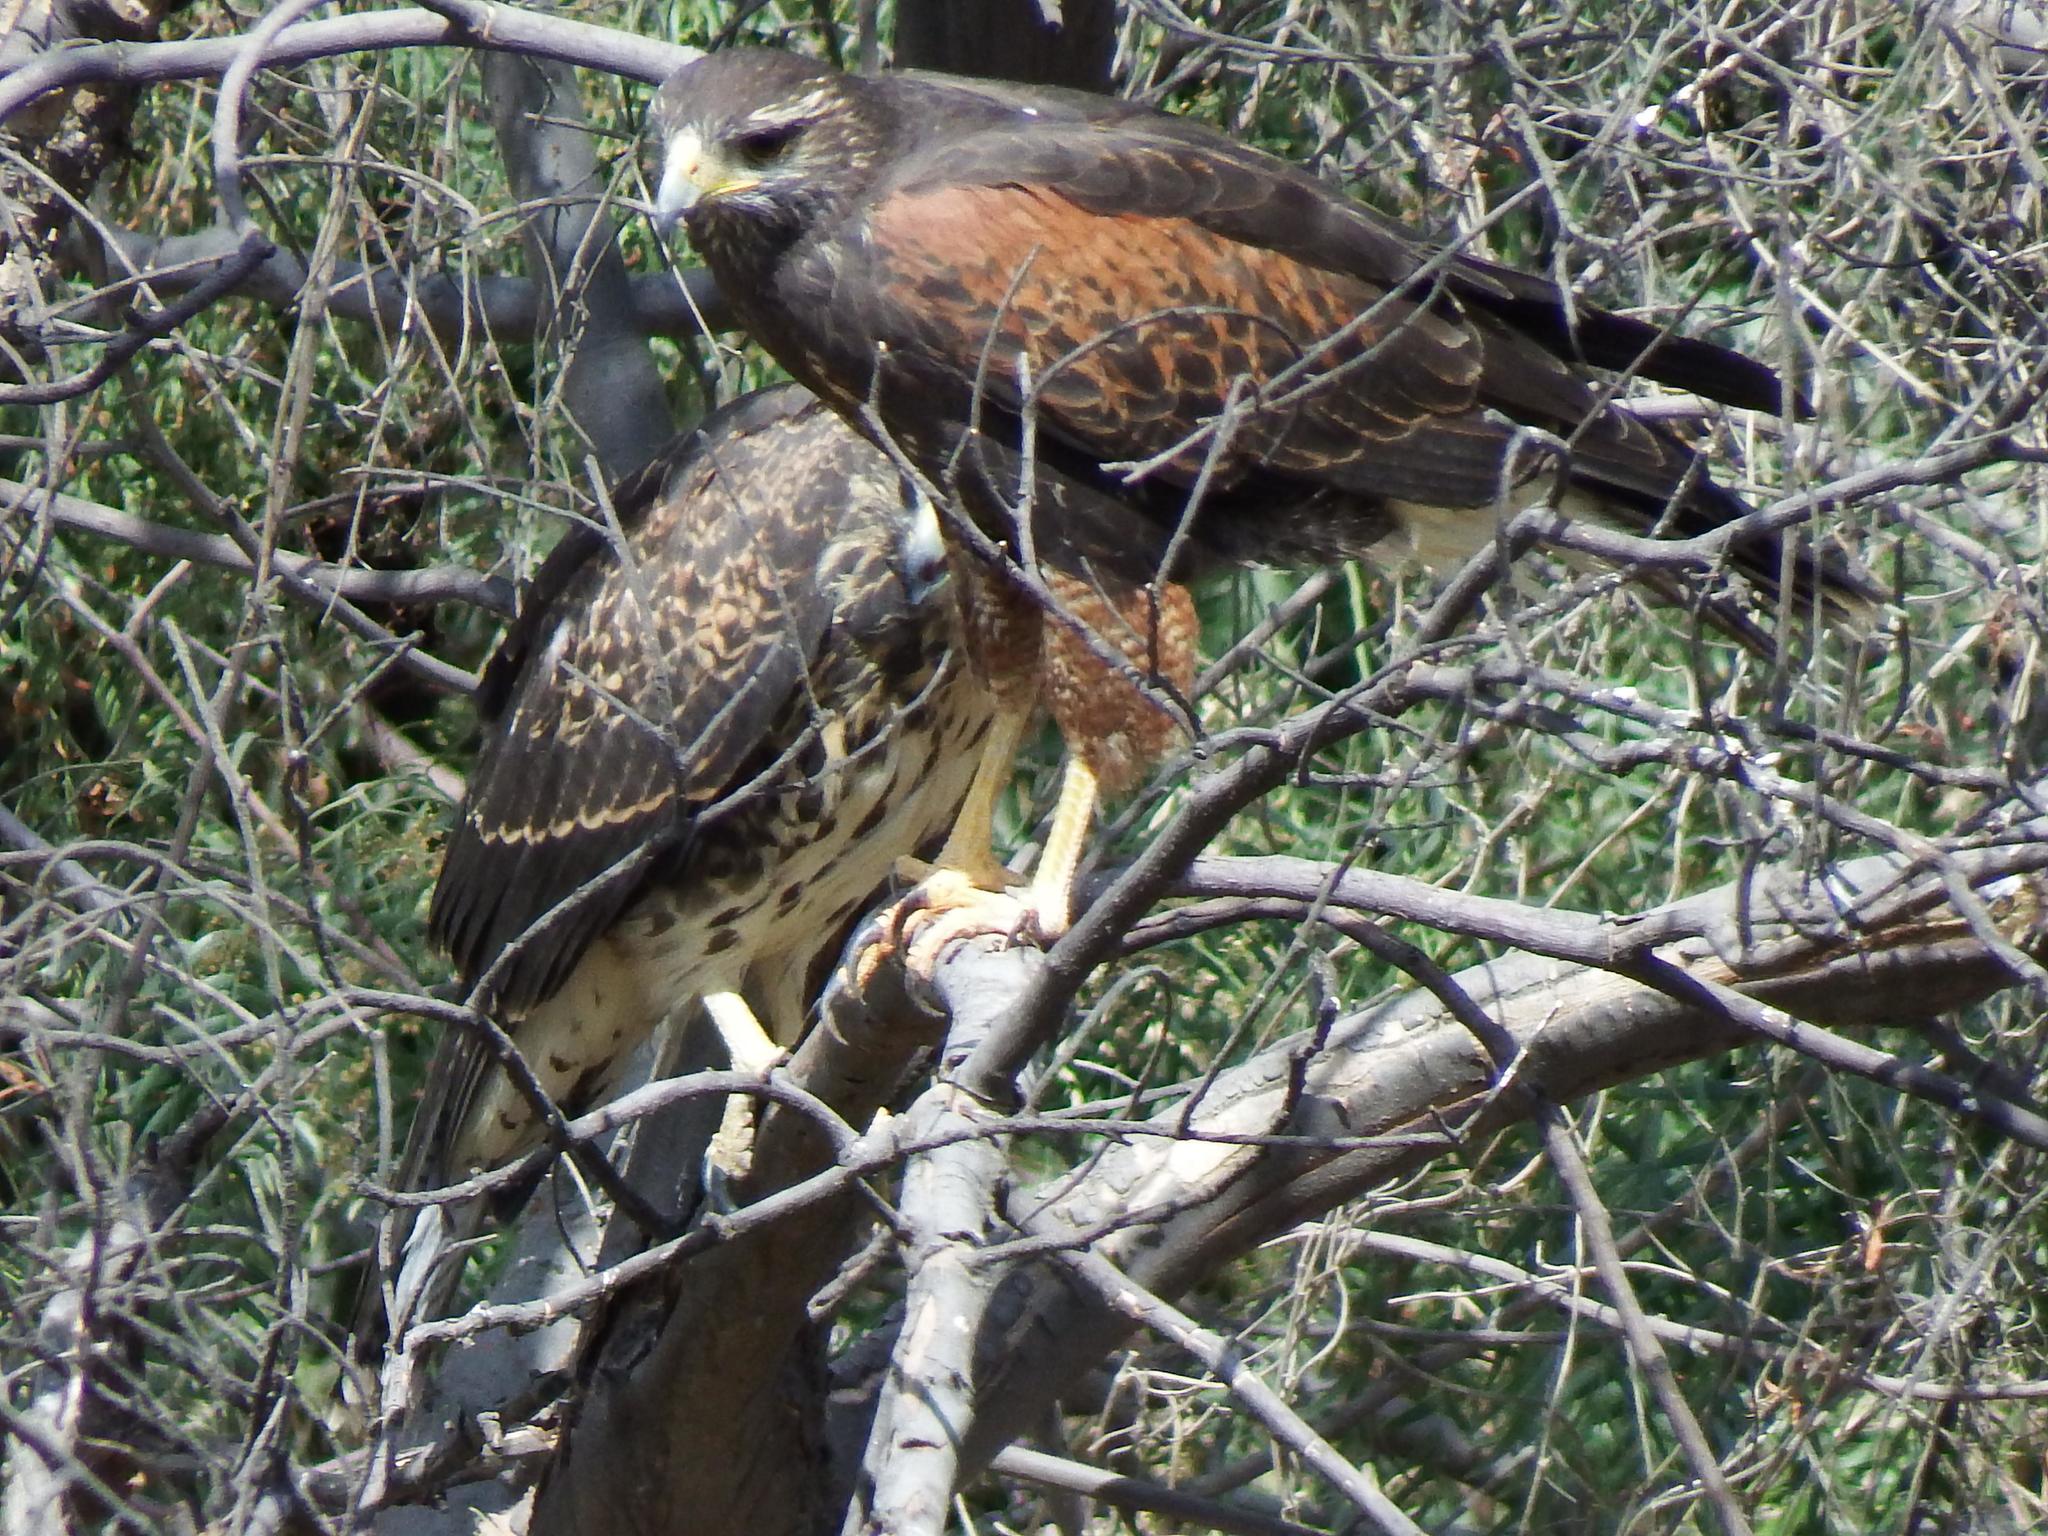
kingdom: Animalia
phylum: Chordata
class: Aves
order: Accipitriformes
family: Accipitridae
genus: Parabuteo
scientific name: Parabuteo unicinctus
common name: Harris's hawk
